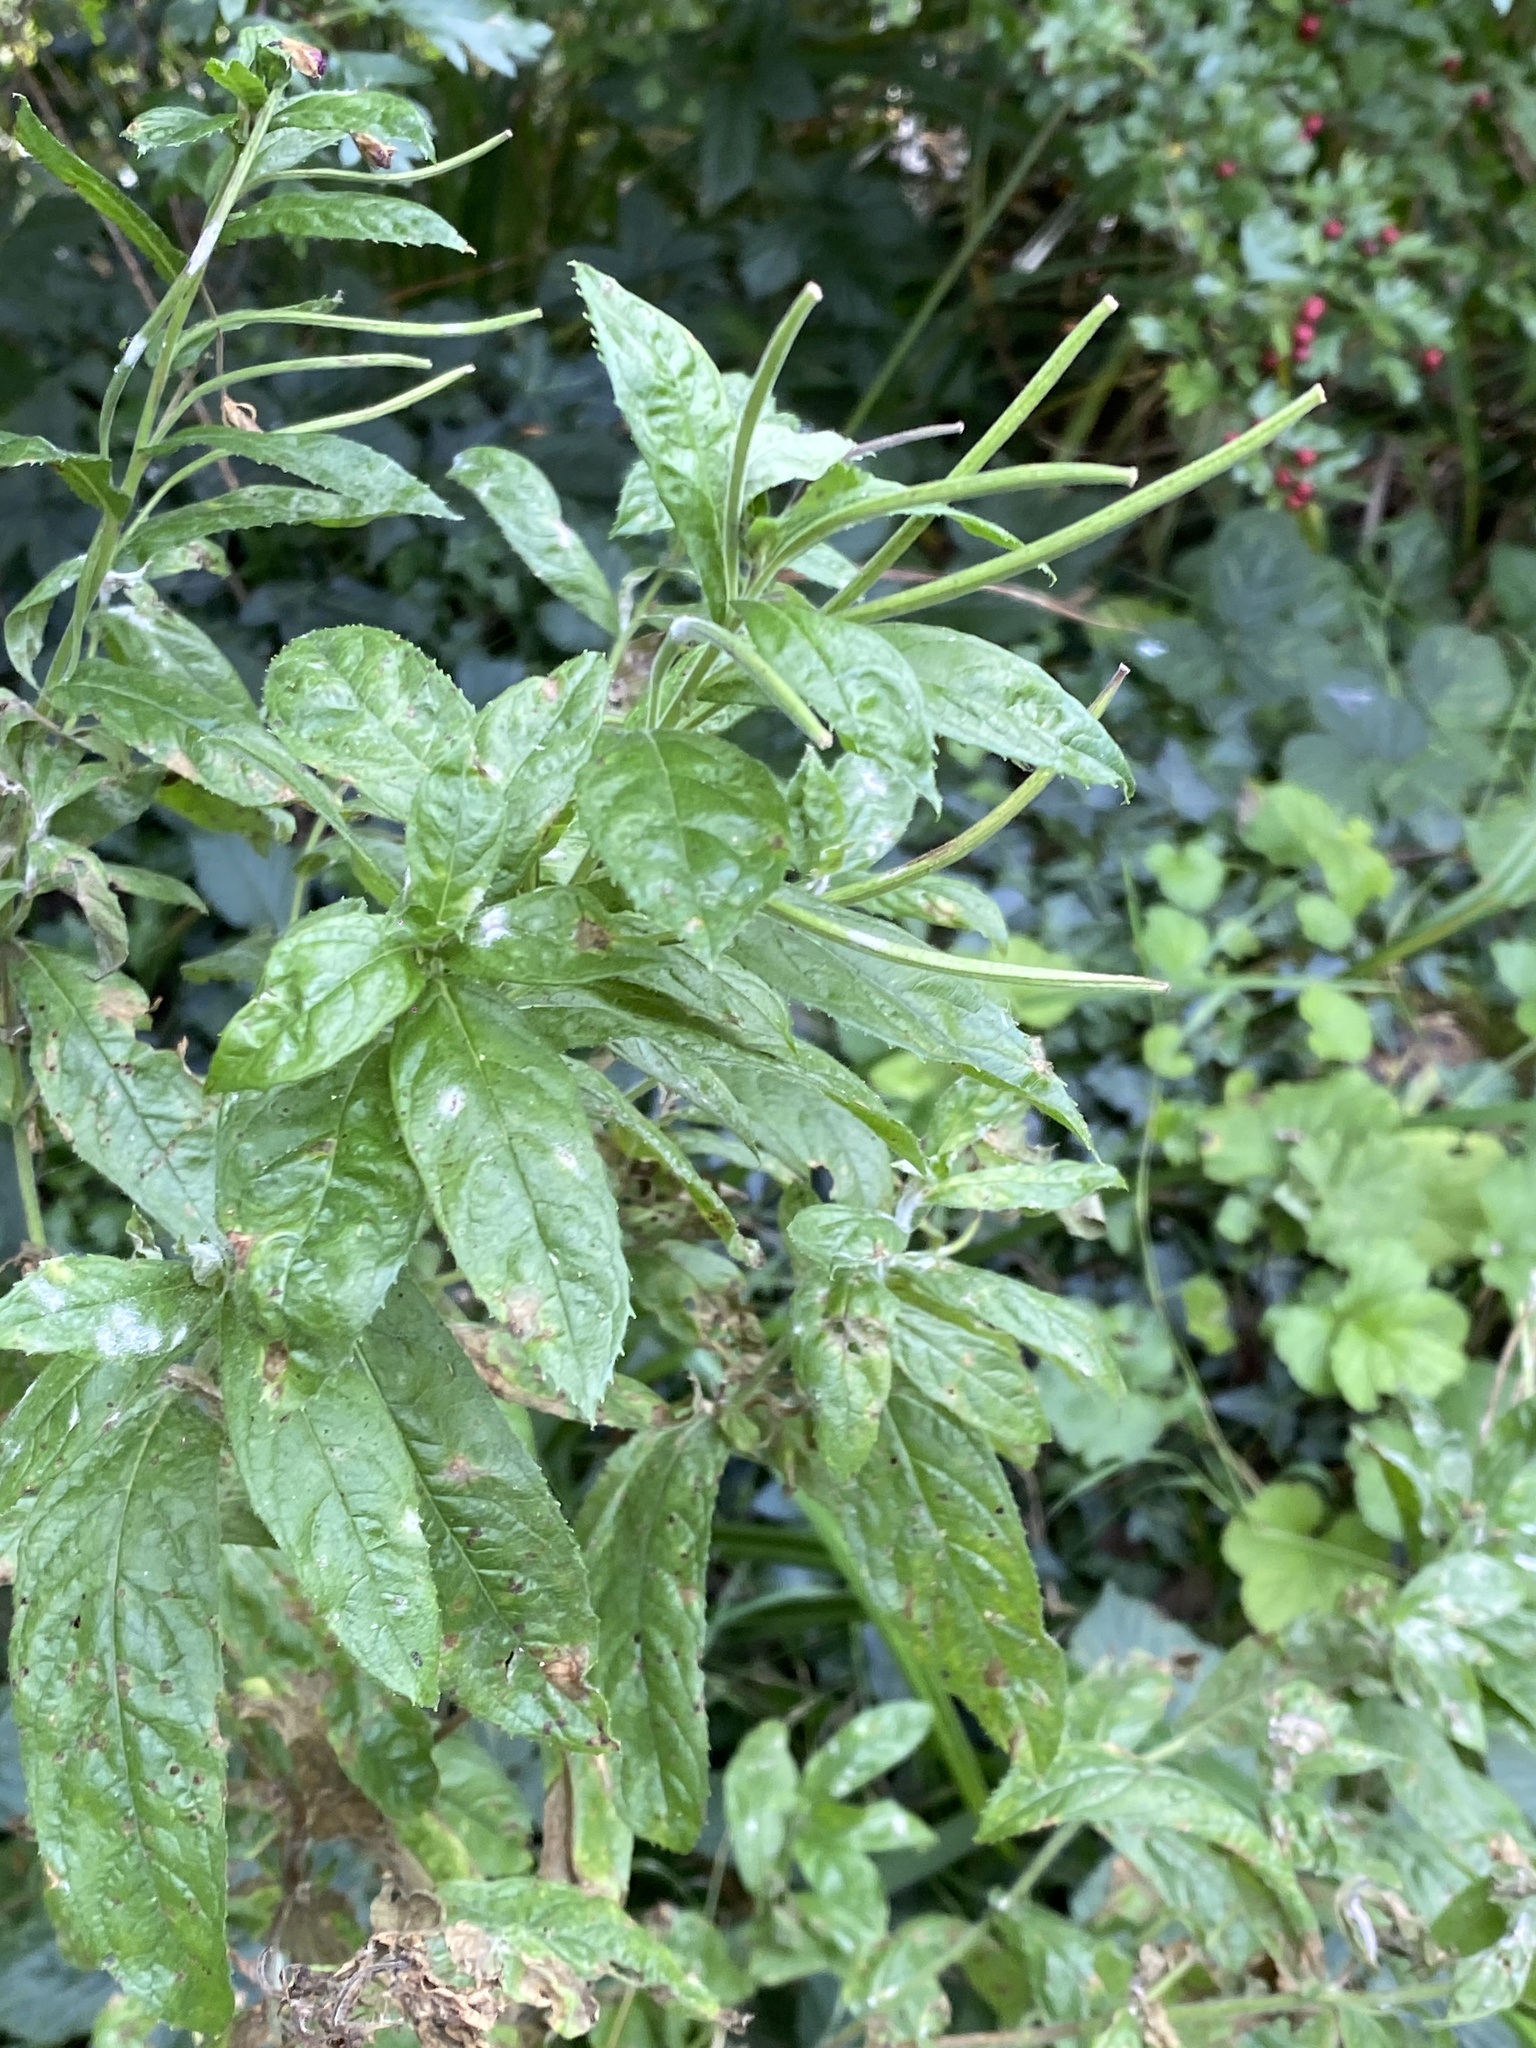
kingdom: Plantae
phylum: Tracheophyta
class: Magnoliopsida
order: Myrtales
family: Onagraceae
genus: Epilobium
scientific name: Epilobium hirsutum
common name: Great willowherb
